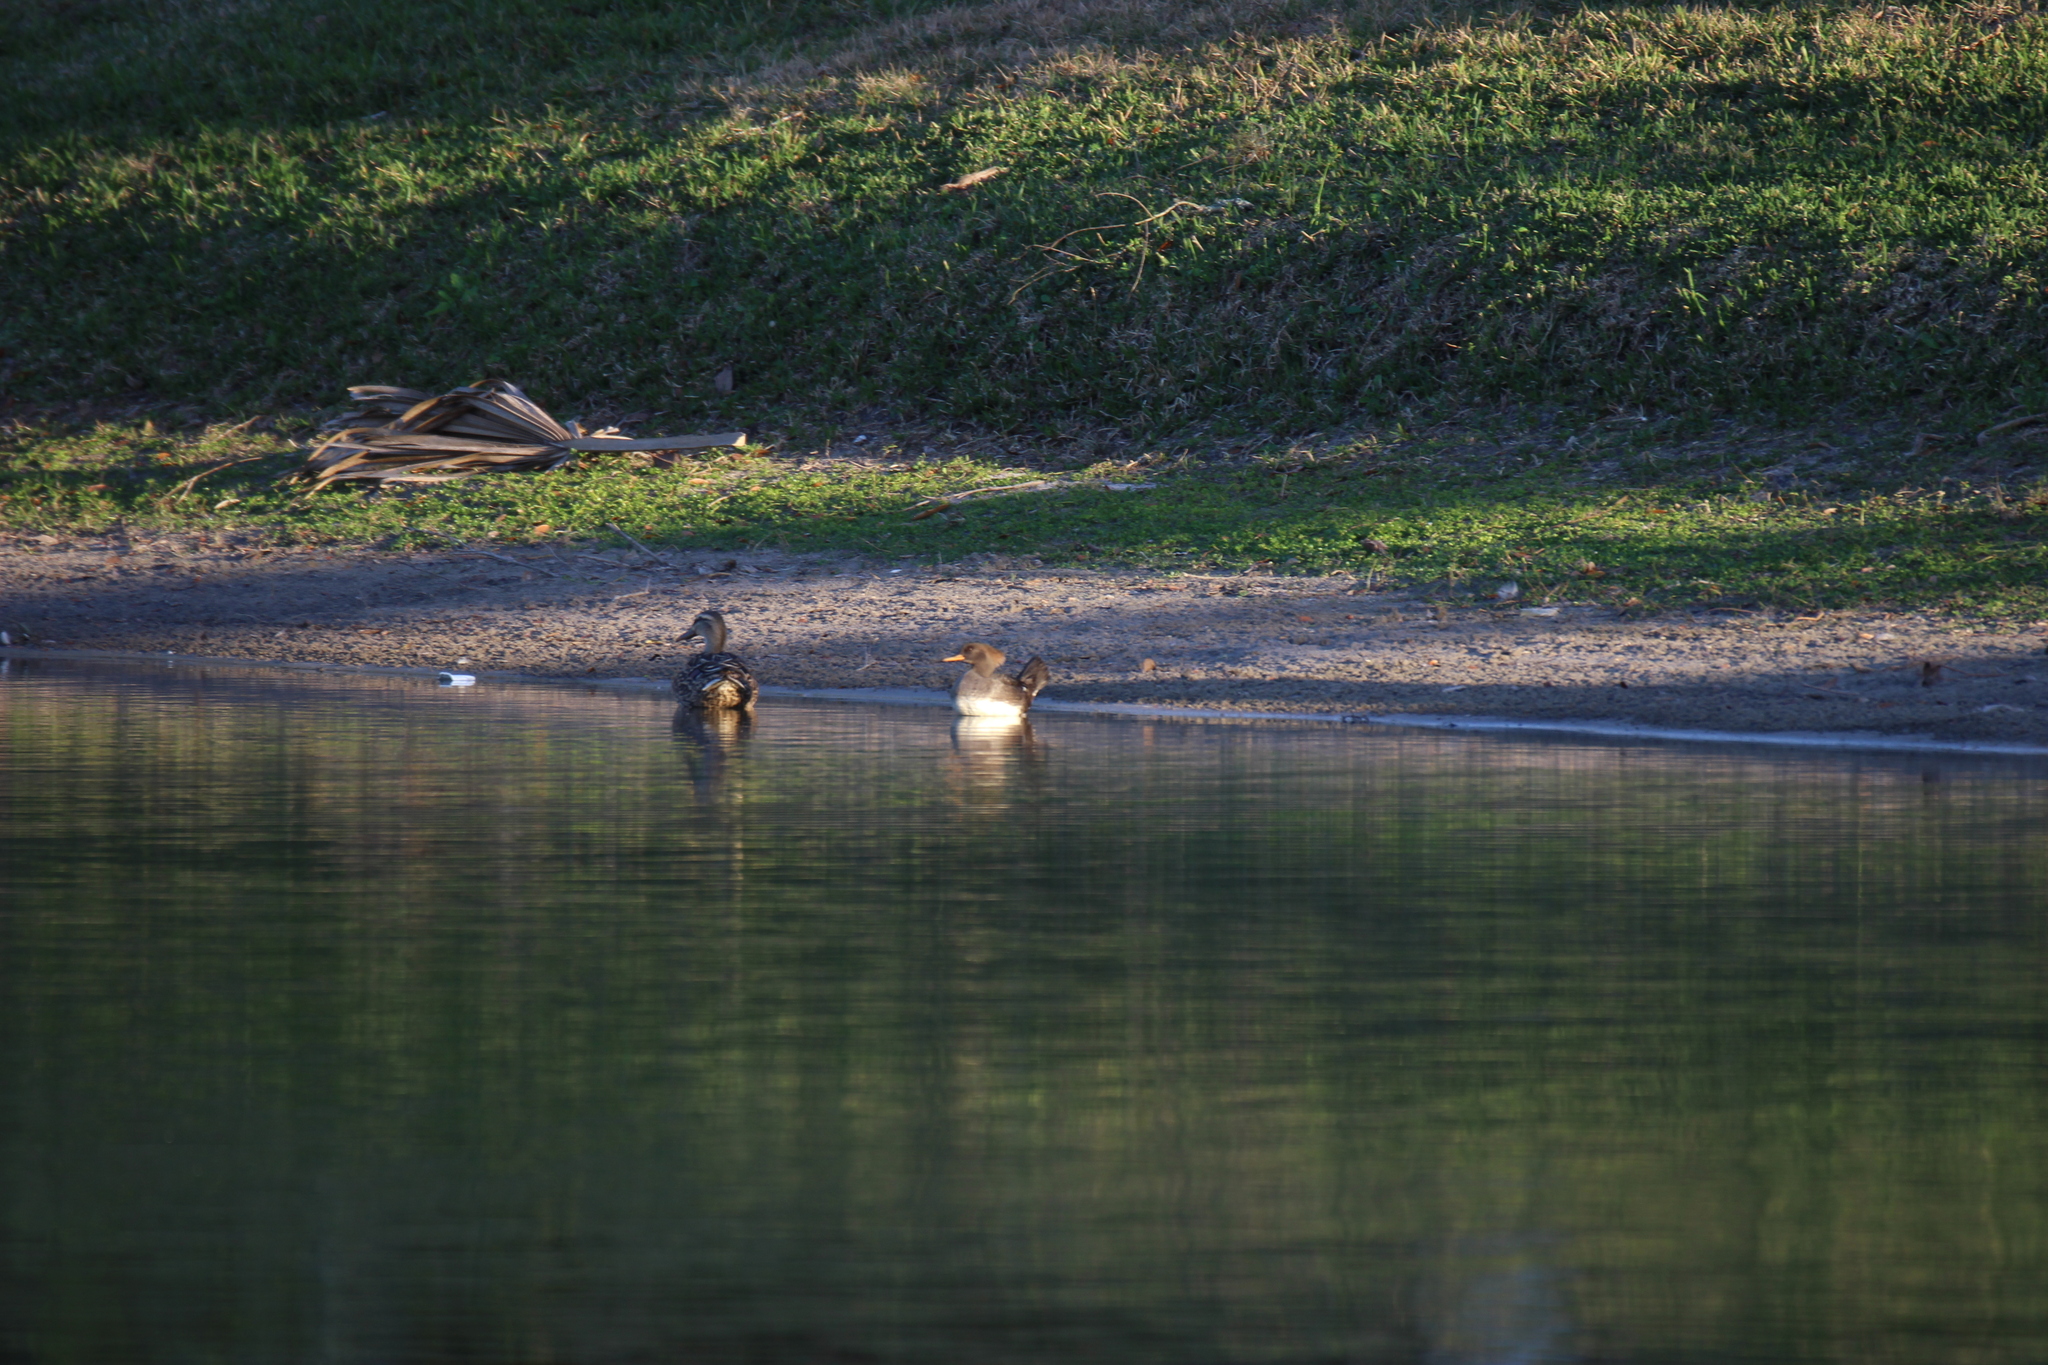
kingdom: Animalia
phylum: Chordata
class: Aves
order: Anseriformes
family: Anatidae
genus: Lophodytes
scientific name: Lophodytes cucullatus
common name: Hooded merganser
